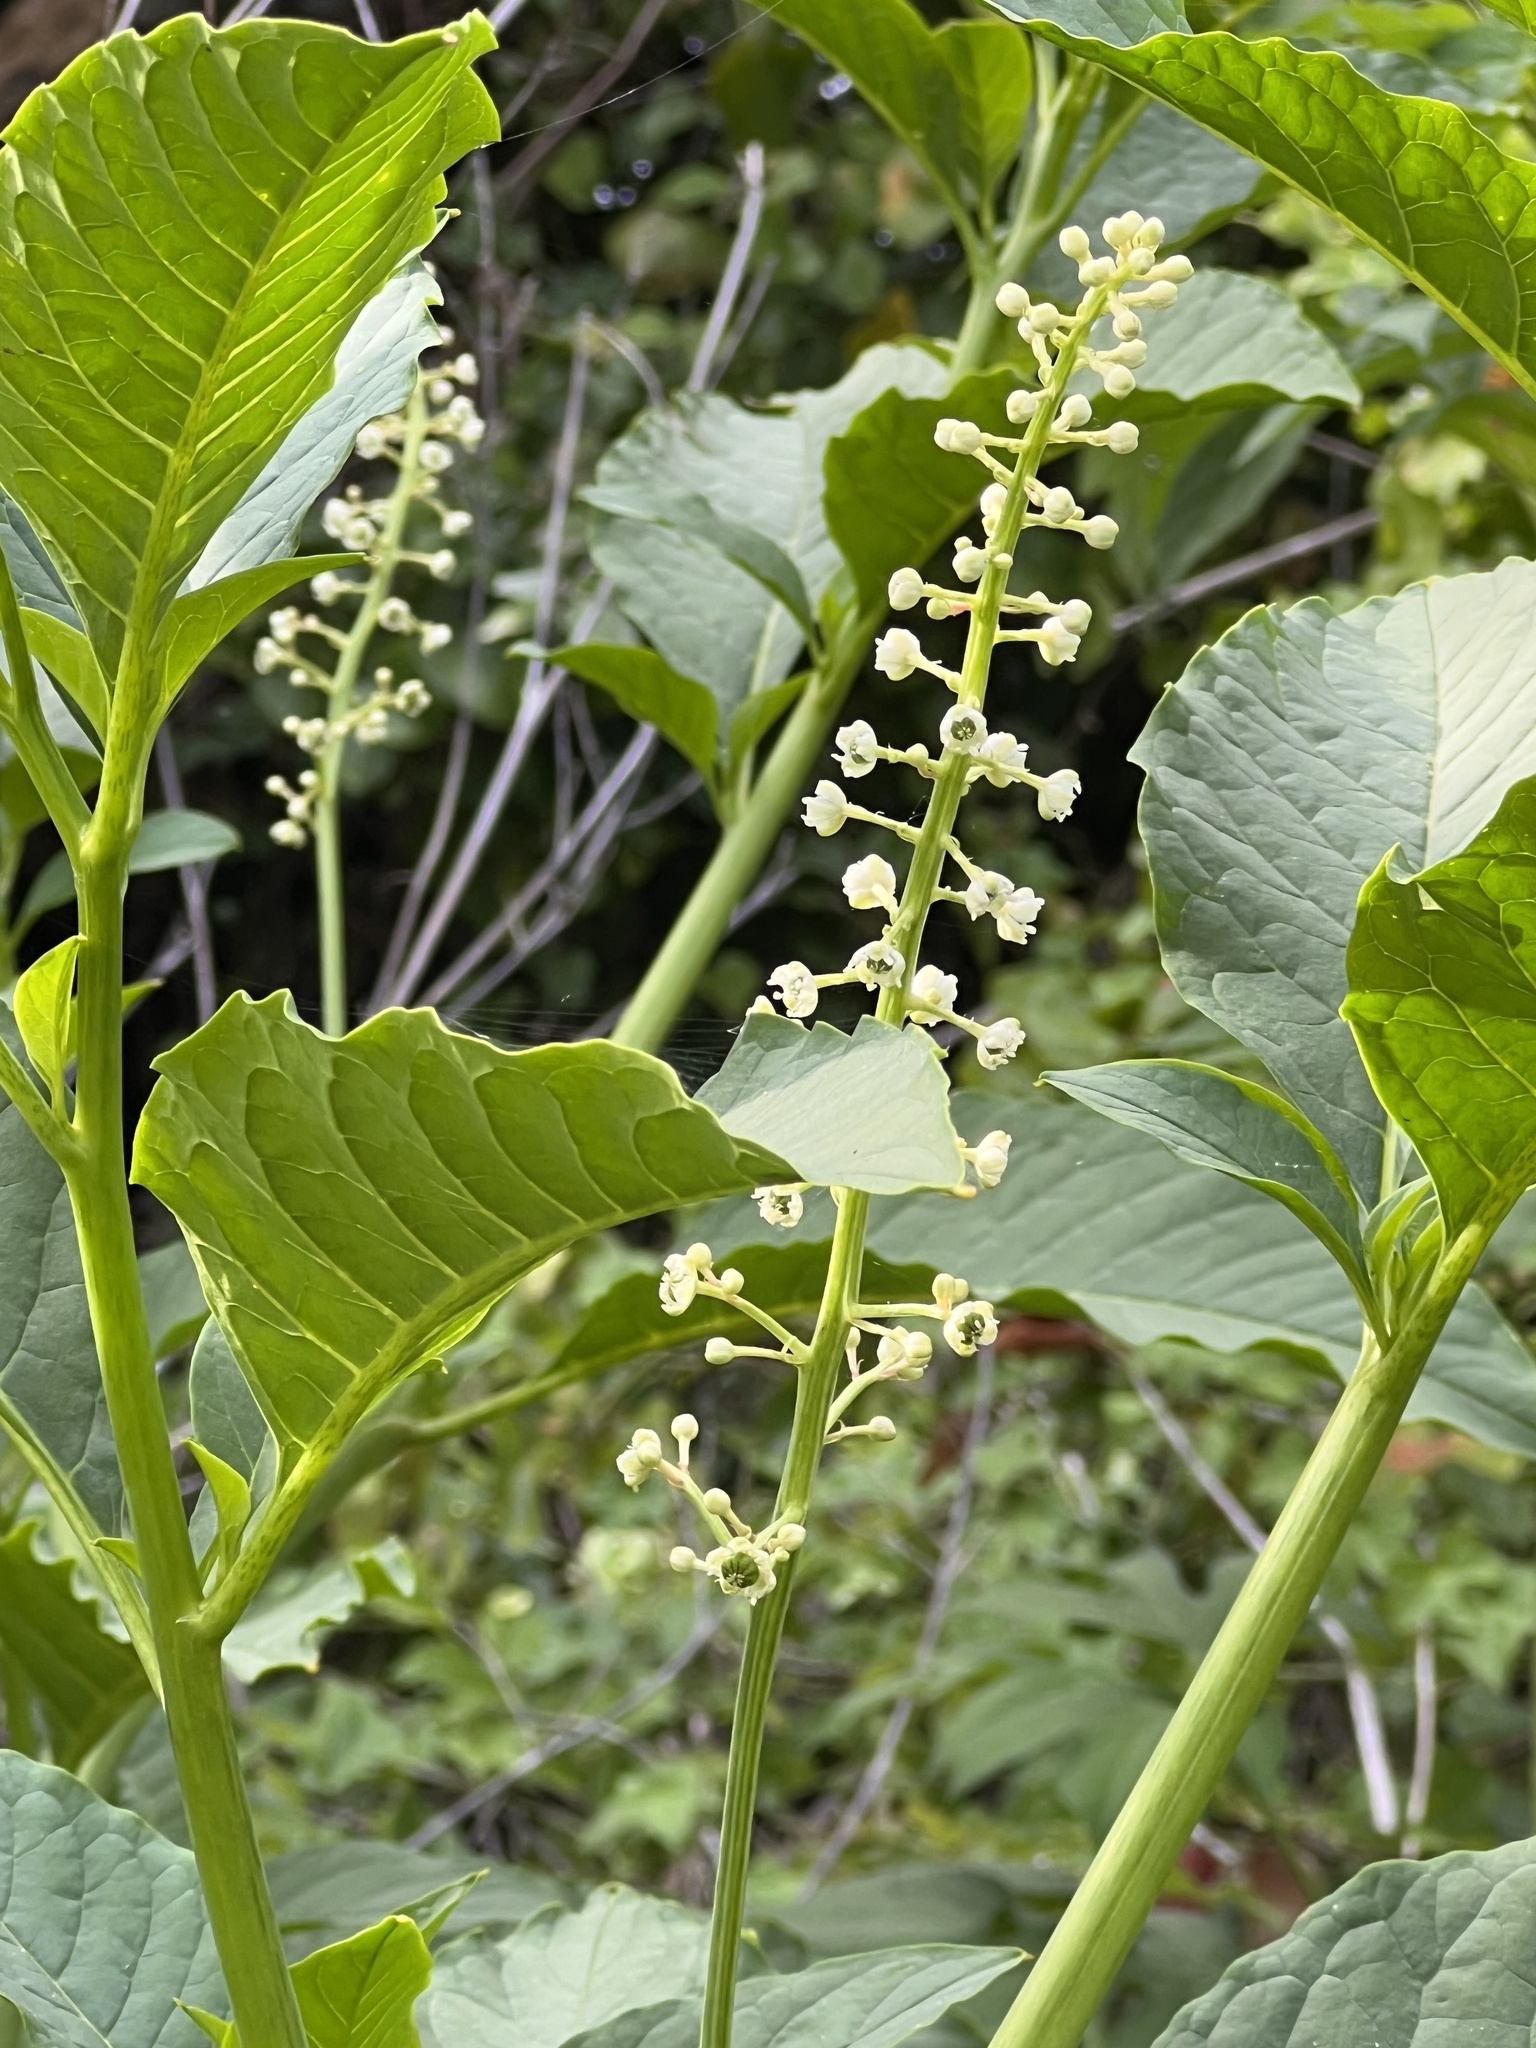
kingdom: Plantae
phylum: Tracheophyta
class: Magnoliopsida
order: Caryophyllales
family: Phytolaccaceae
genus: Phytolacca
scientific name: Phytolacca americana
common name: American pokeweed
